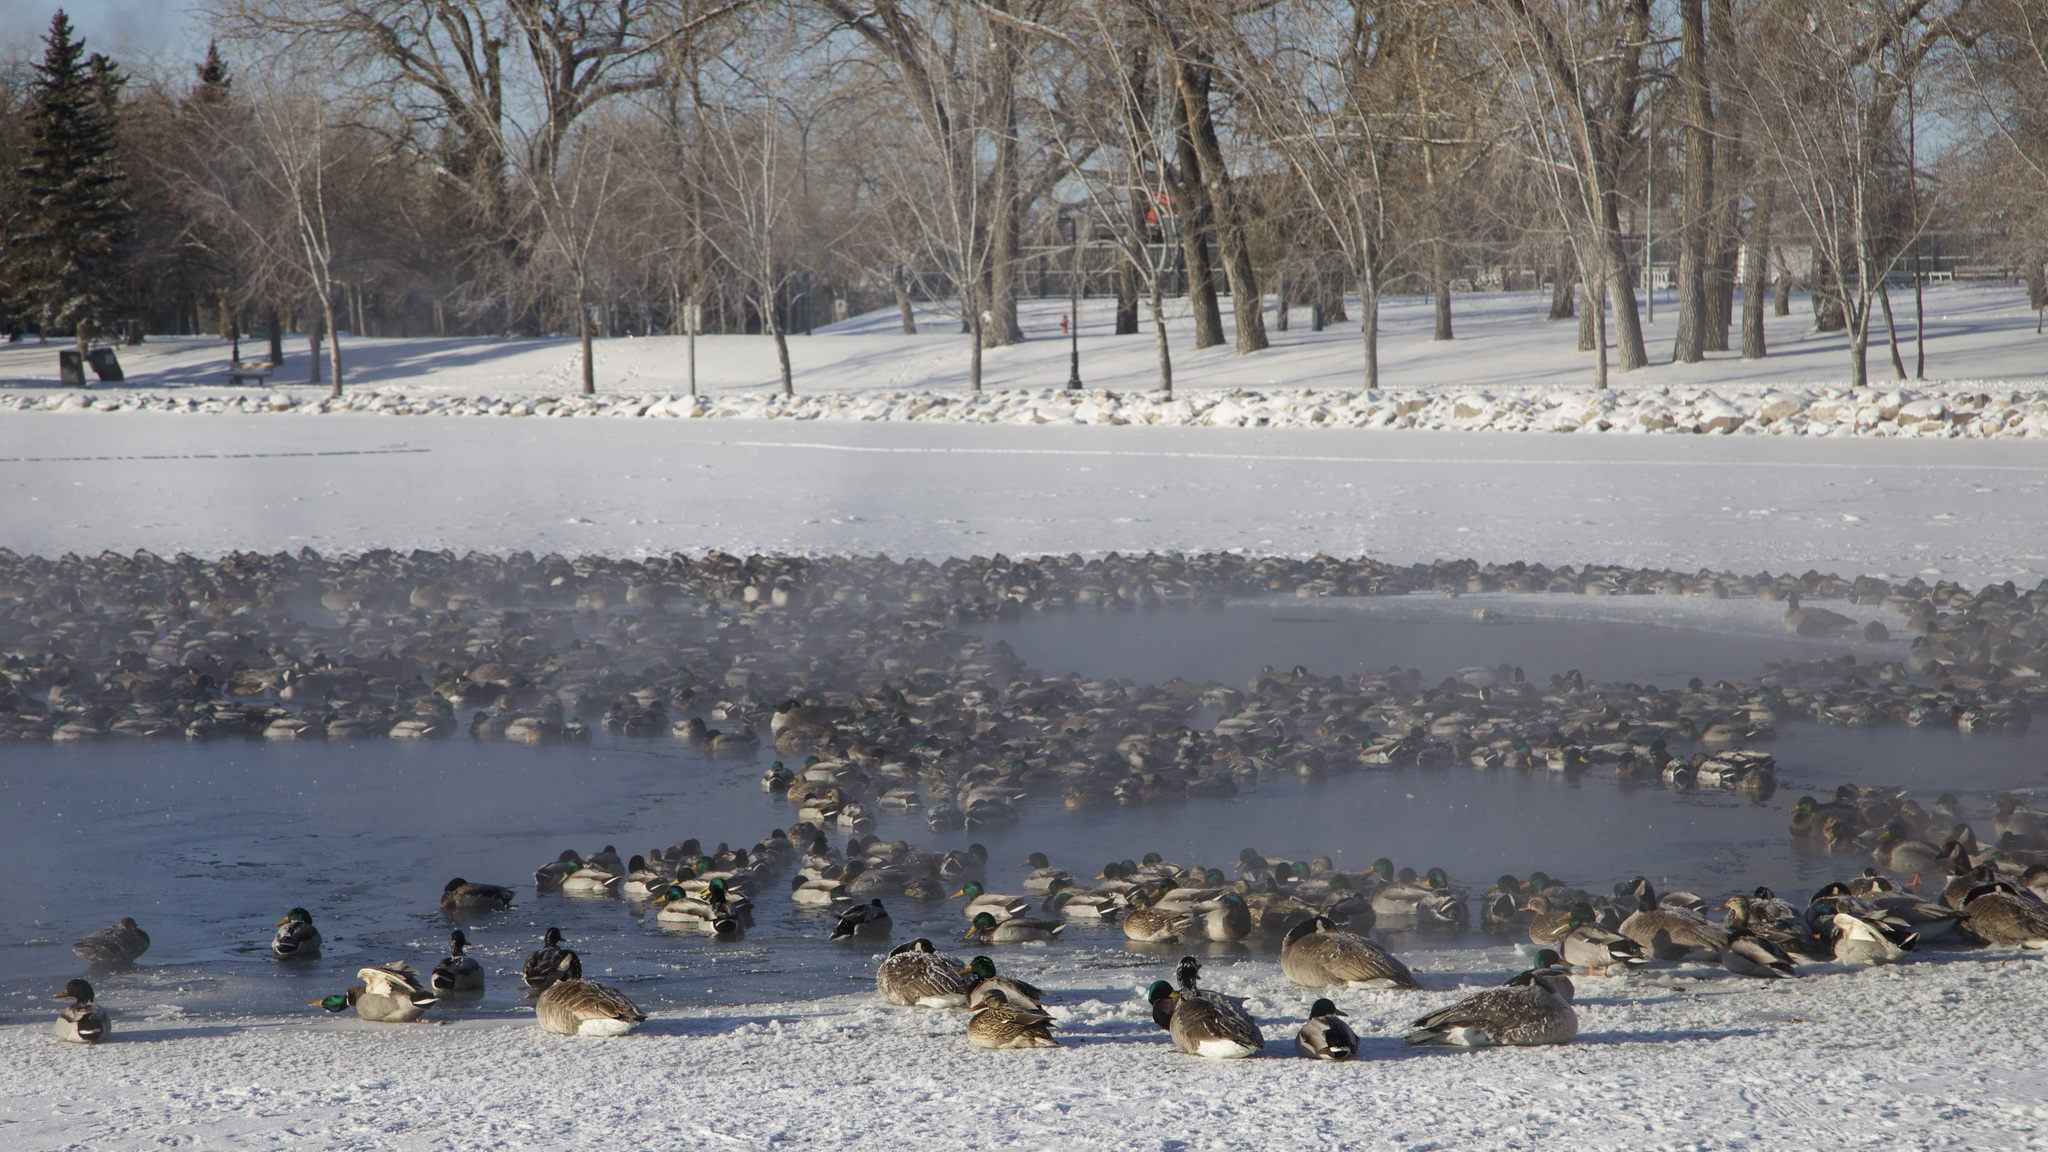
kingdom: Animalia
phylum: Chordata
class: Aves
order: Anseriformes
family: Anatidae
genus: Anas
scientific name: Anas platyrhynchos
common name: Mallard
